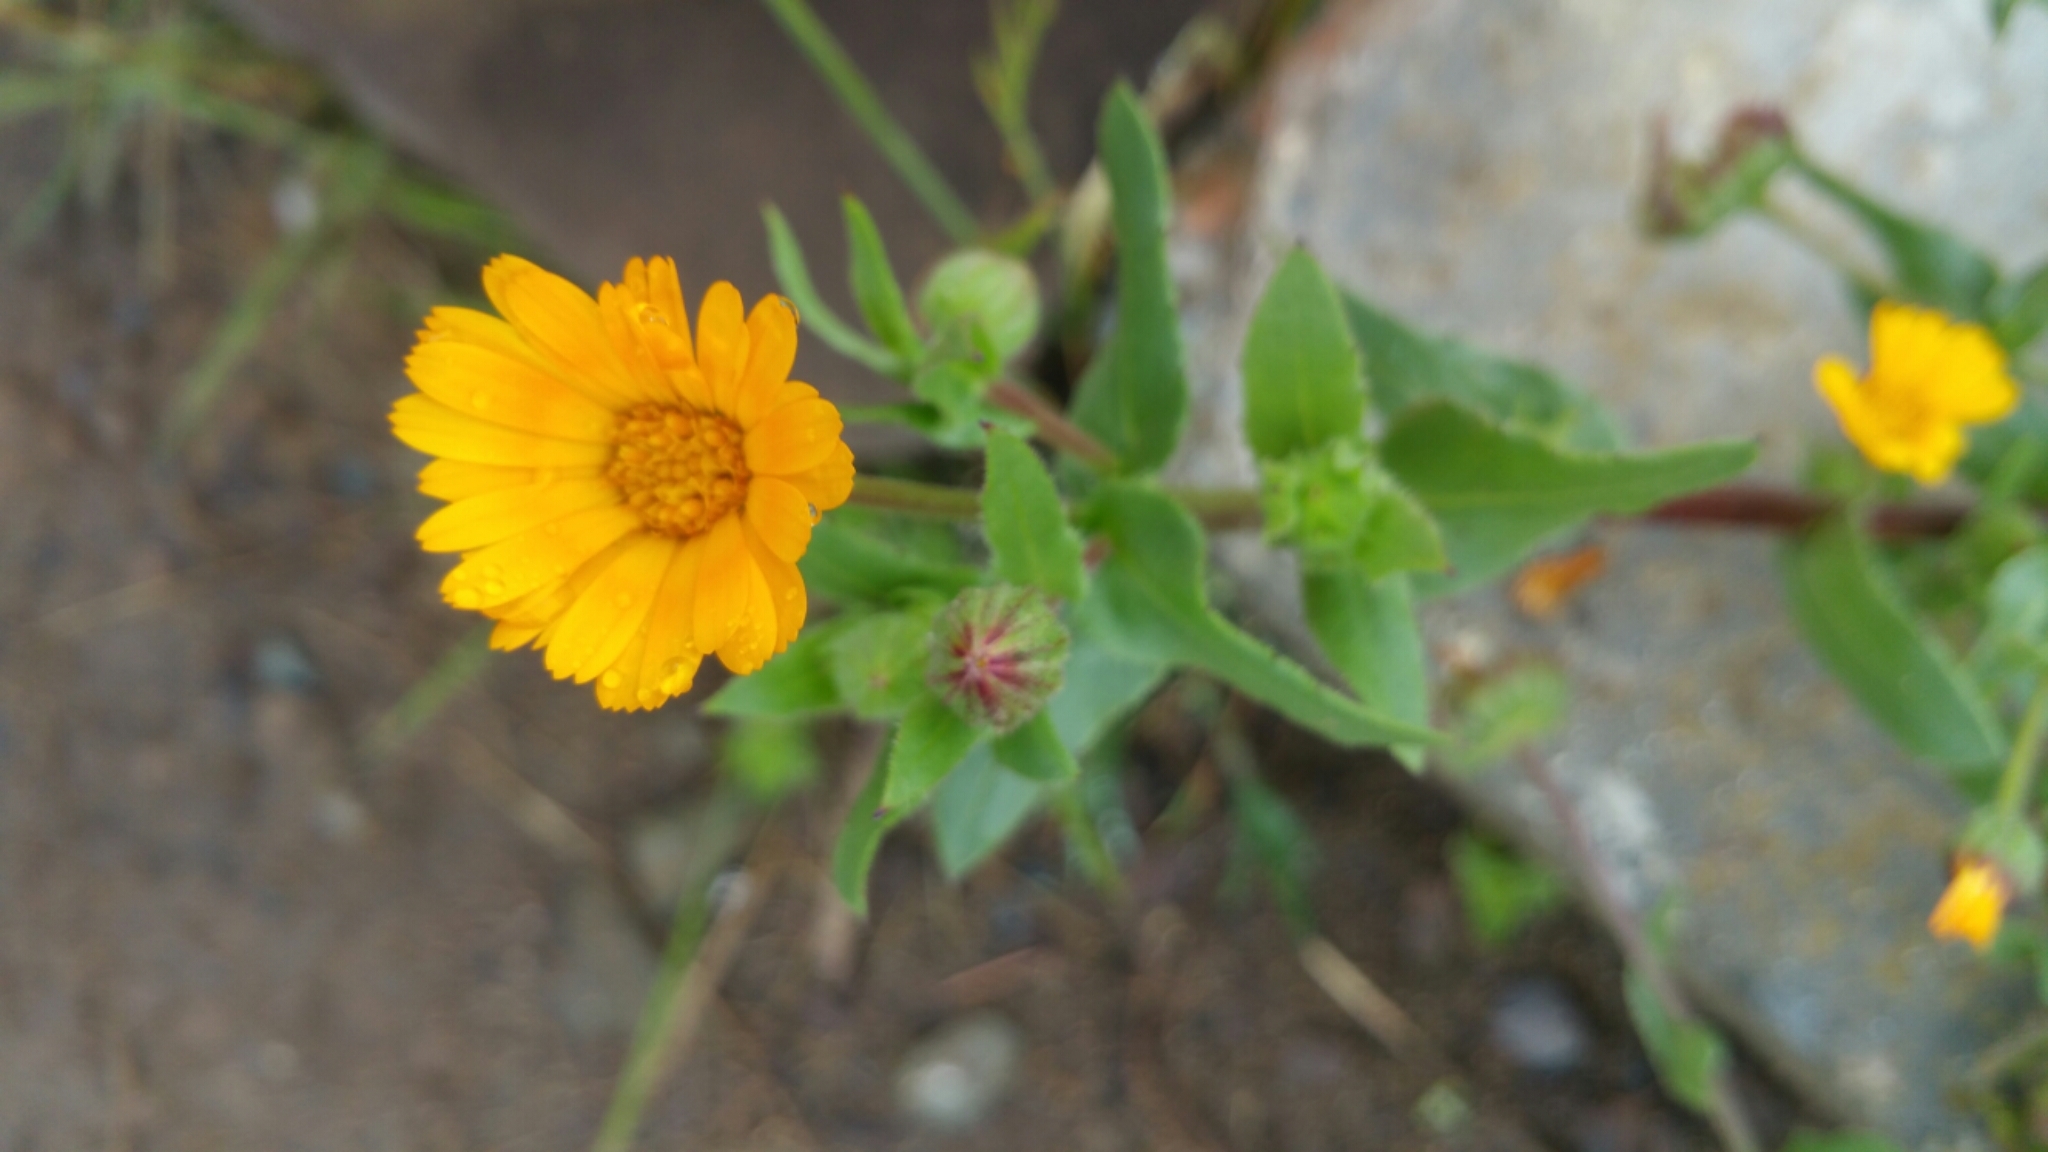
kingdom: Plantae
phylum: Tracheophyta
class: Magnoliopsida
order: Asterales
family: Asteraceae
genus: Calendula
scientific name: Calendula arvensis
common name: Field marigold
